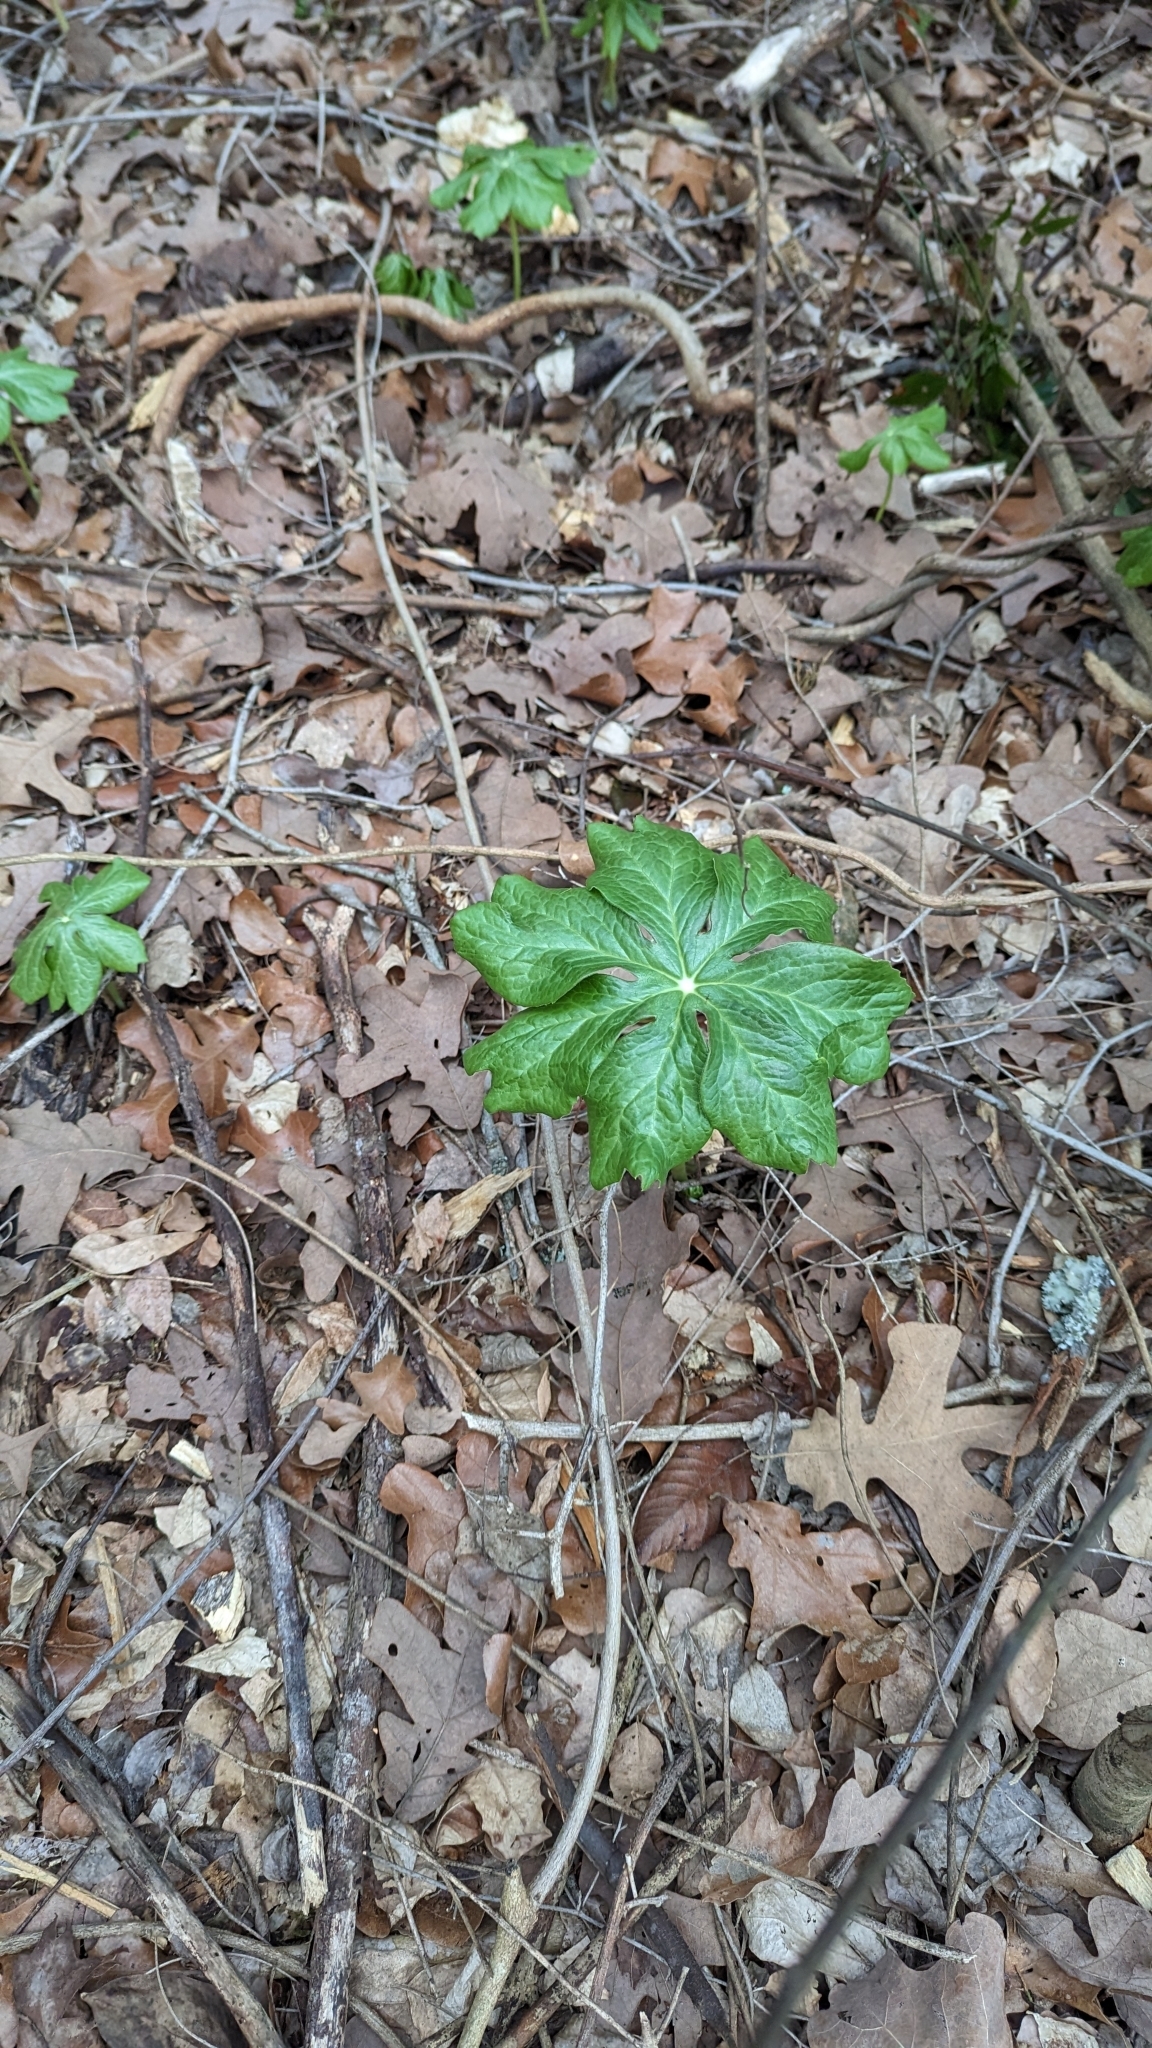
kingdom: Plantae
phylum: Tracheophyta
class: Magnoliopsida
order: Ranunculales
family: Berberidaceae
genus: Podophyllum
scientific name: Podophyllum peltatum
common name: Wild mandrake
